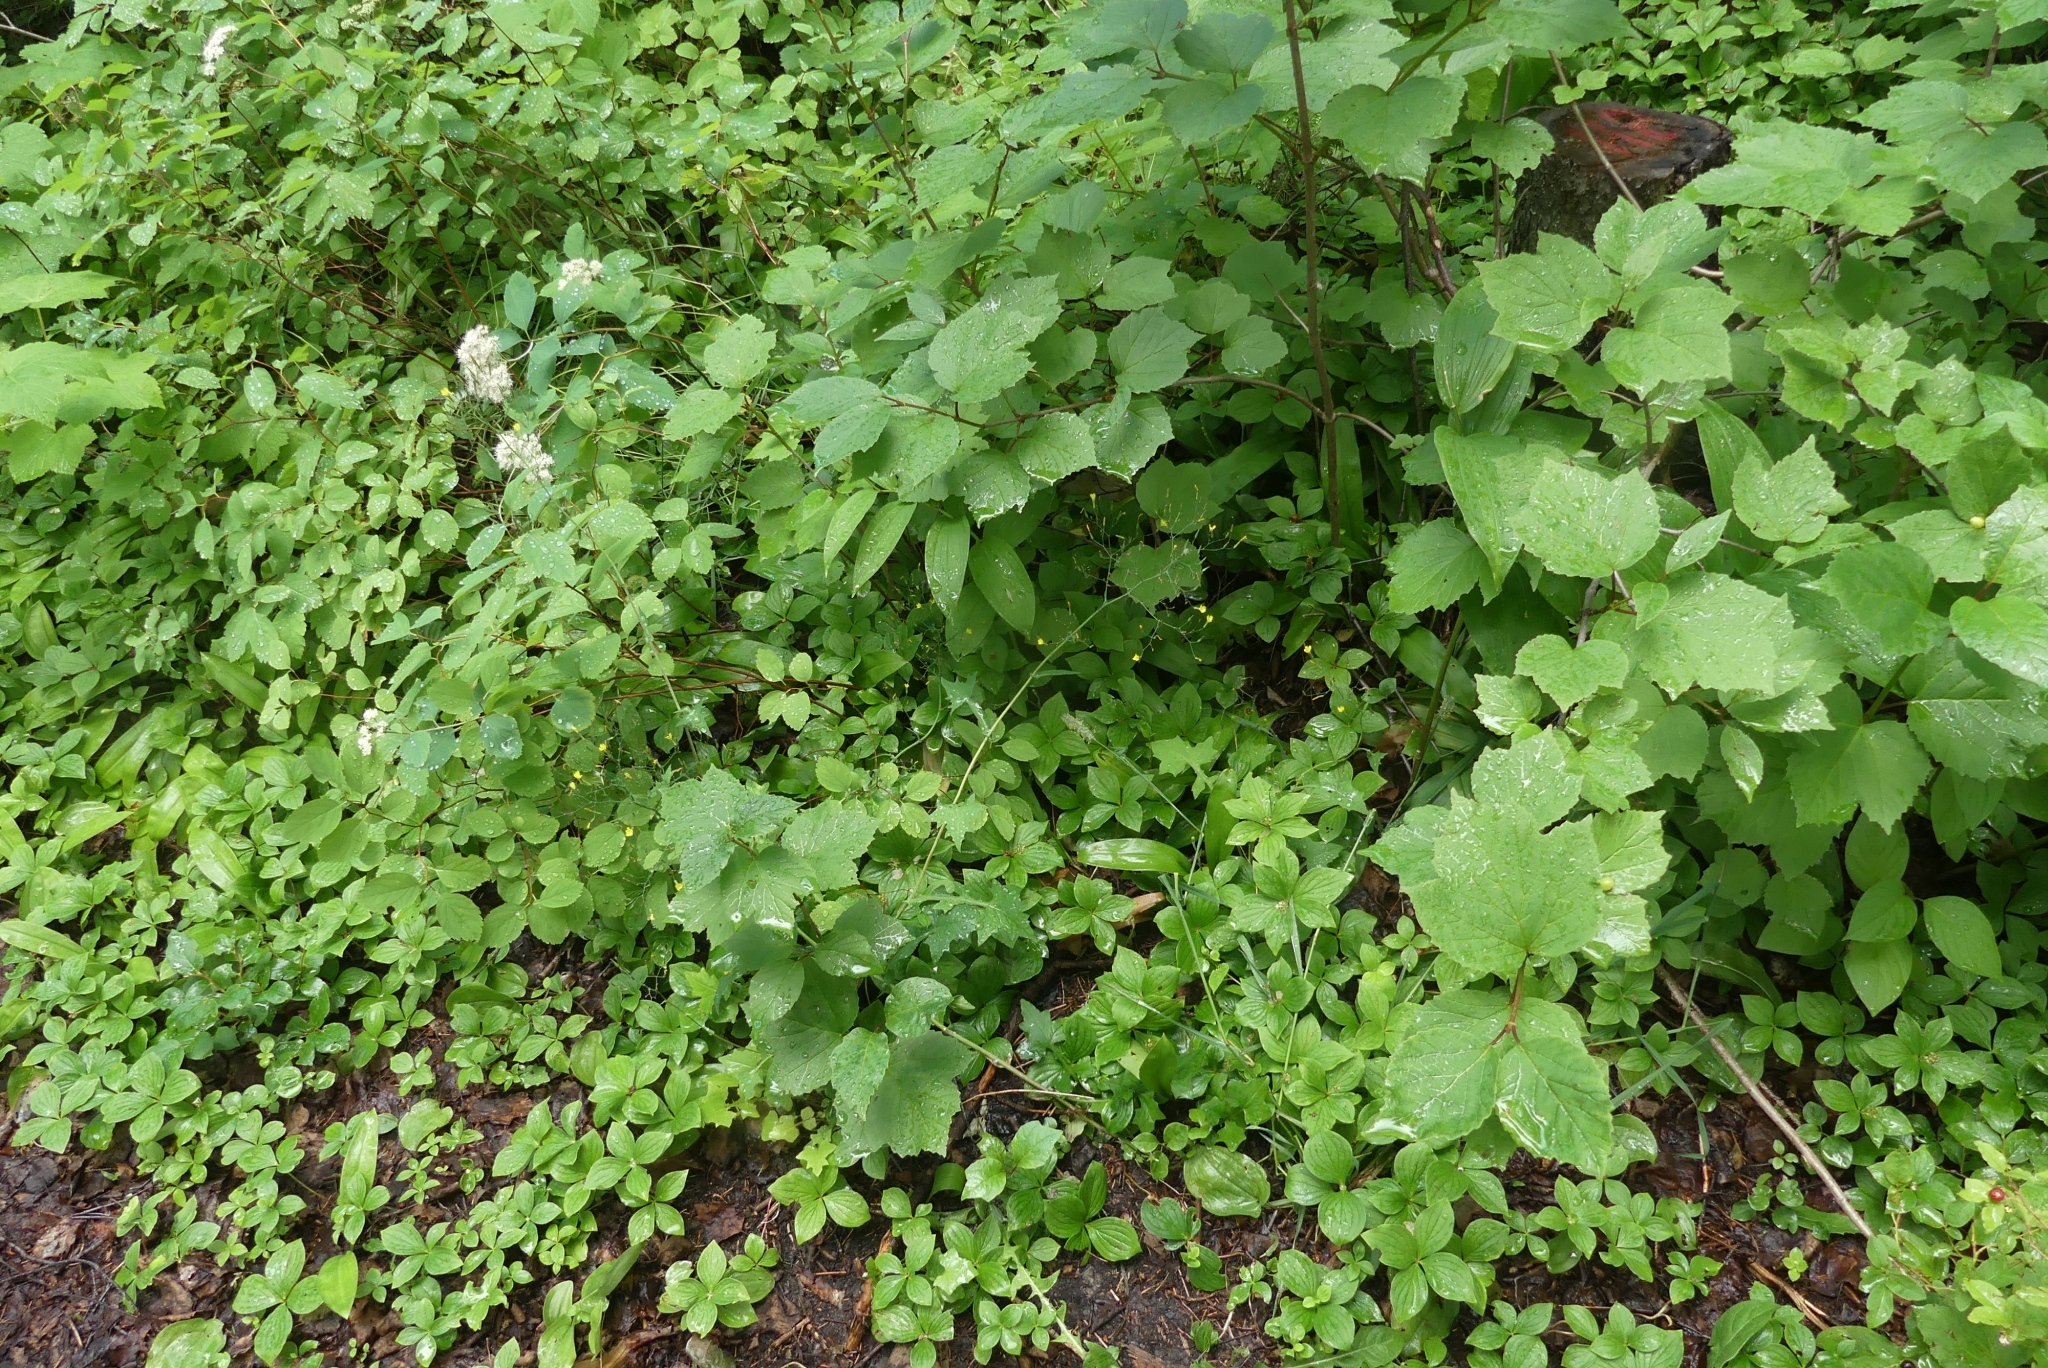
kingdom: Plantae
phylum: Tracheophyta
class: Magnoliopsida
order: Asterales
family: Asteraceae
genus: Mycelis
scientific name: Mycelis muralis
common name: Wall lettuce
